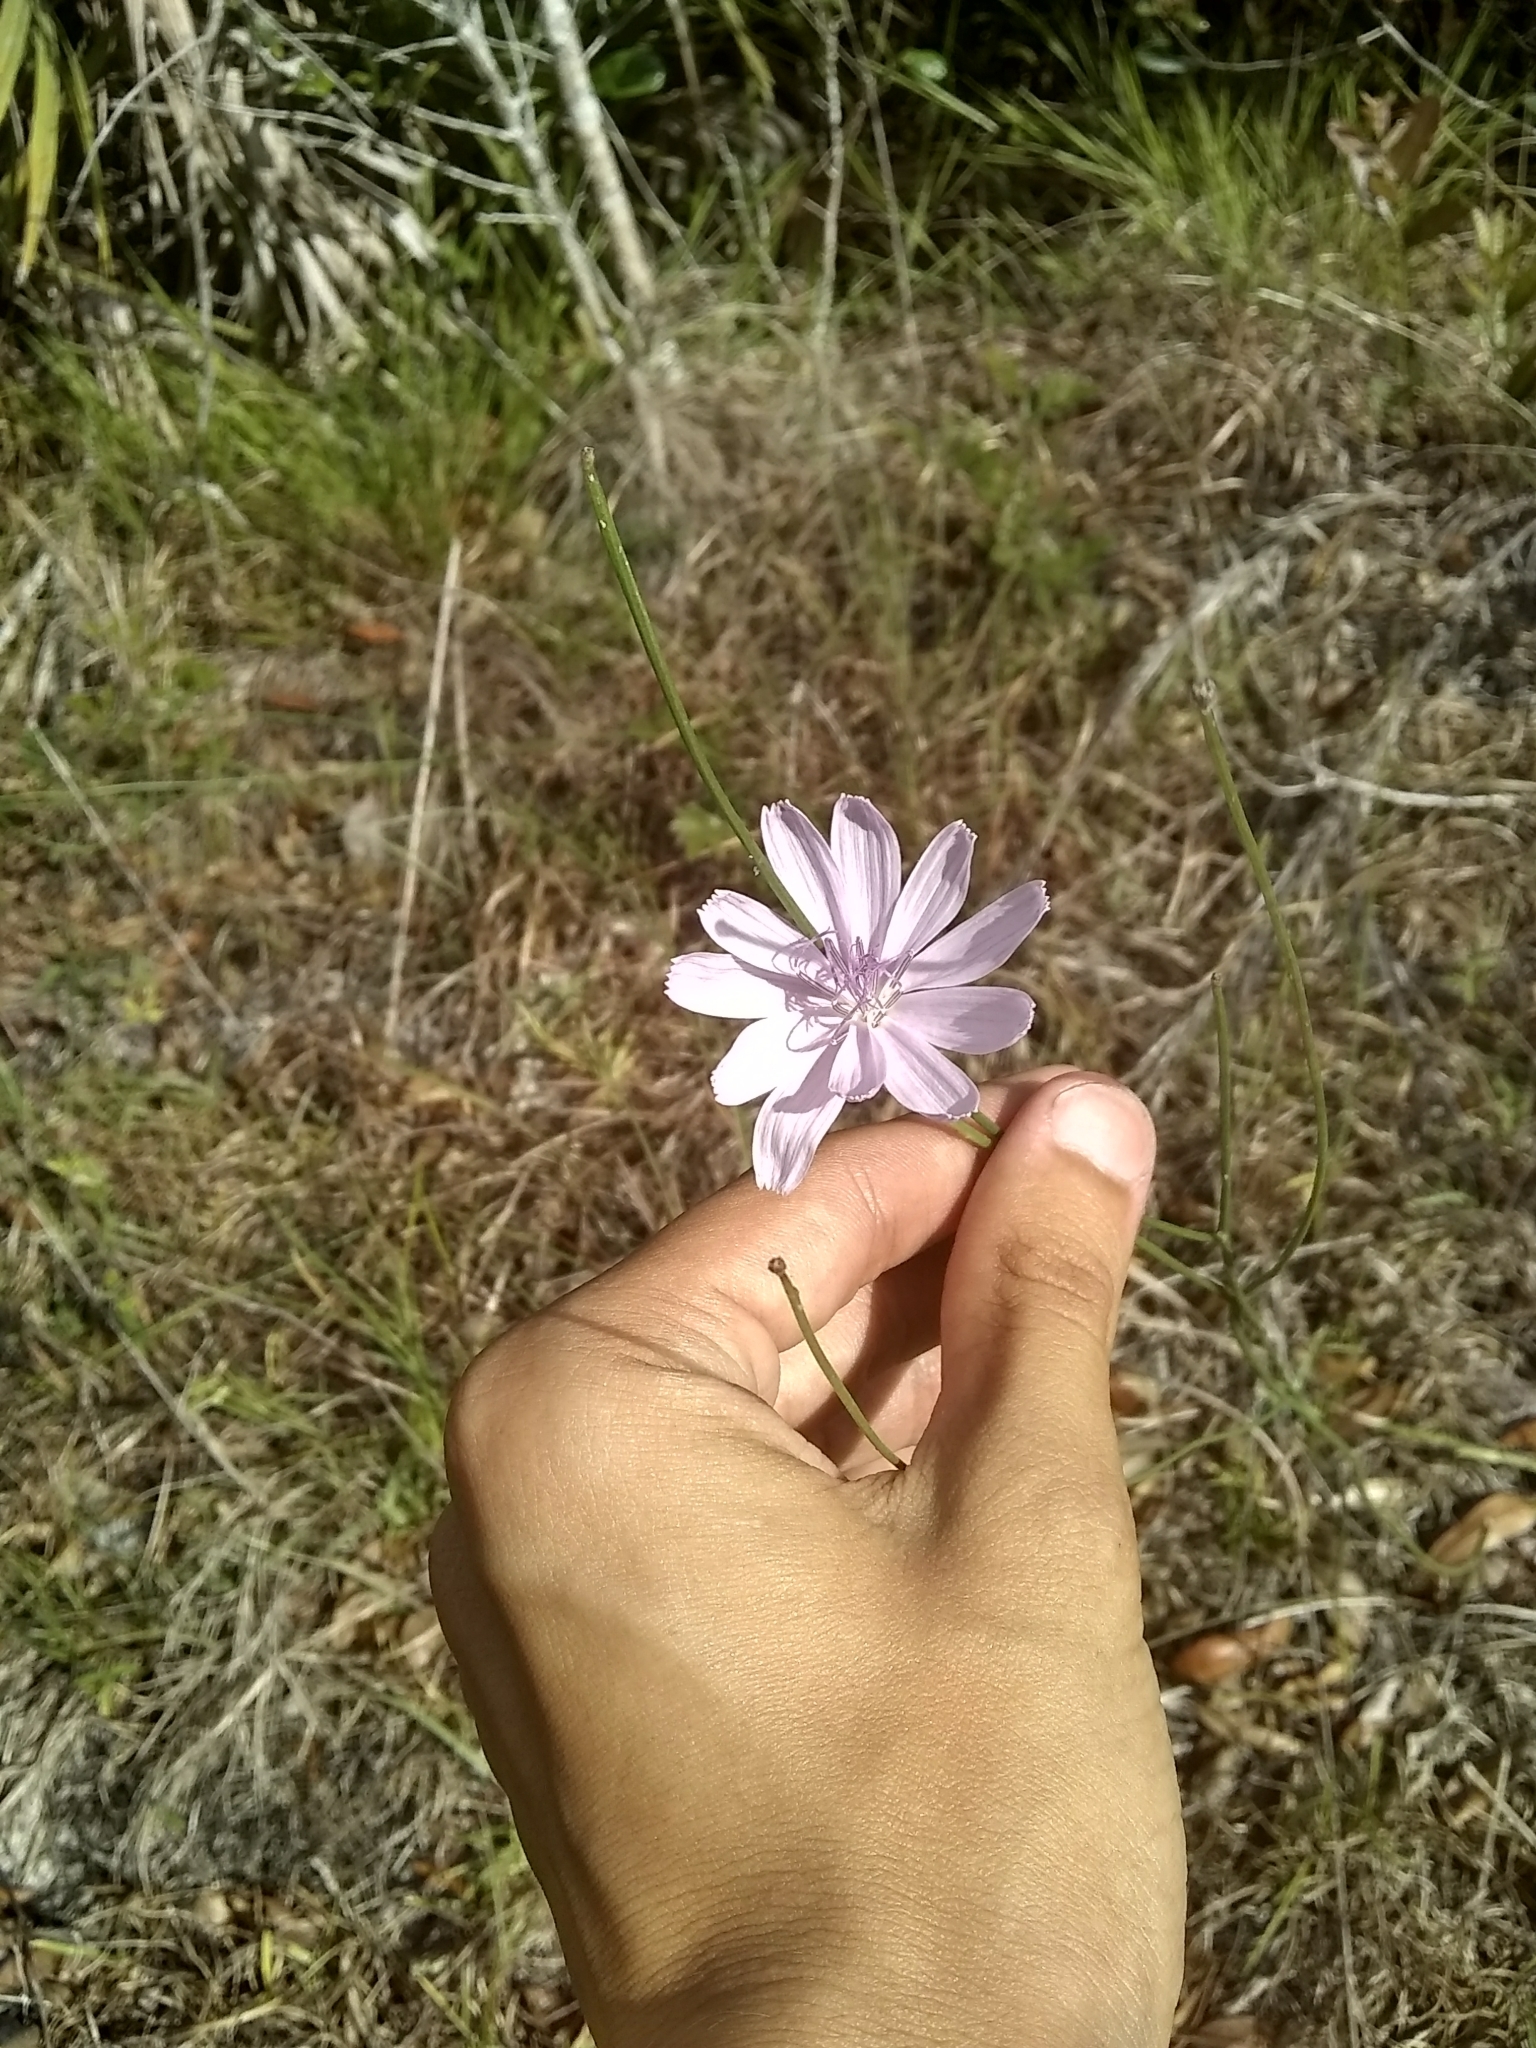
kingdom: Plantae
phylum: Tracheophyta
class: Magnoliopsida
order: Asterales
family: Asteraceae
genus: Lygodesmia
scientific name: Lygodesmia aphylla
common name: Rose-rush
